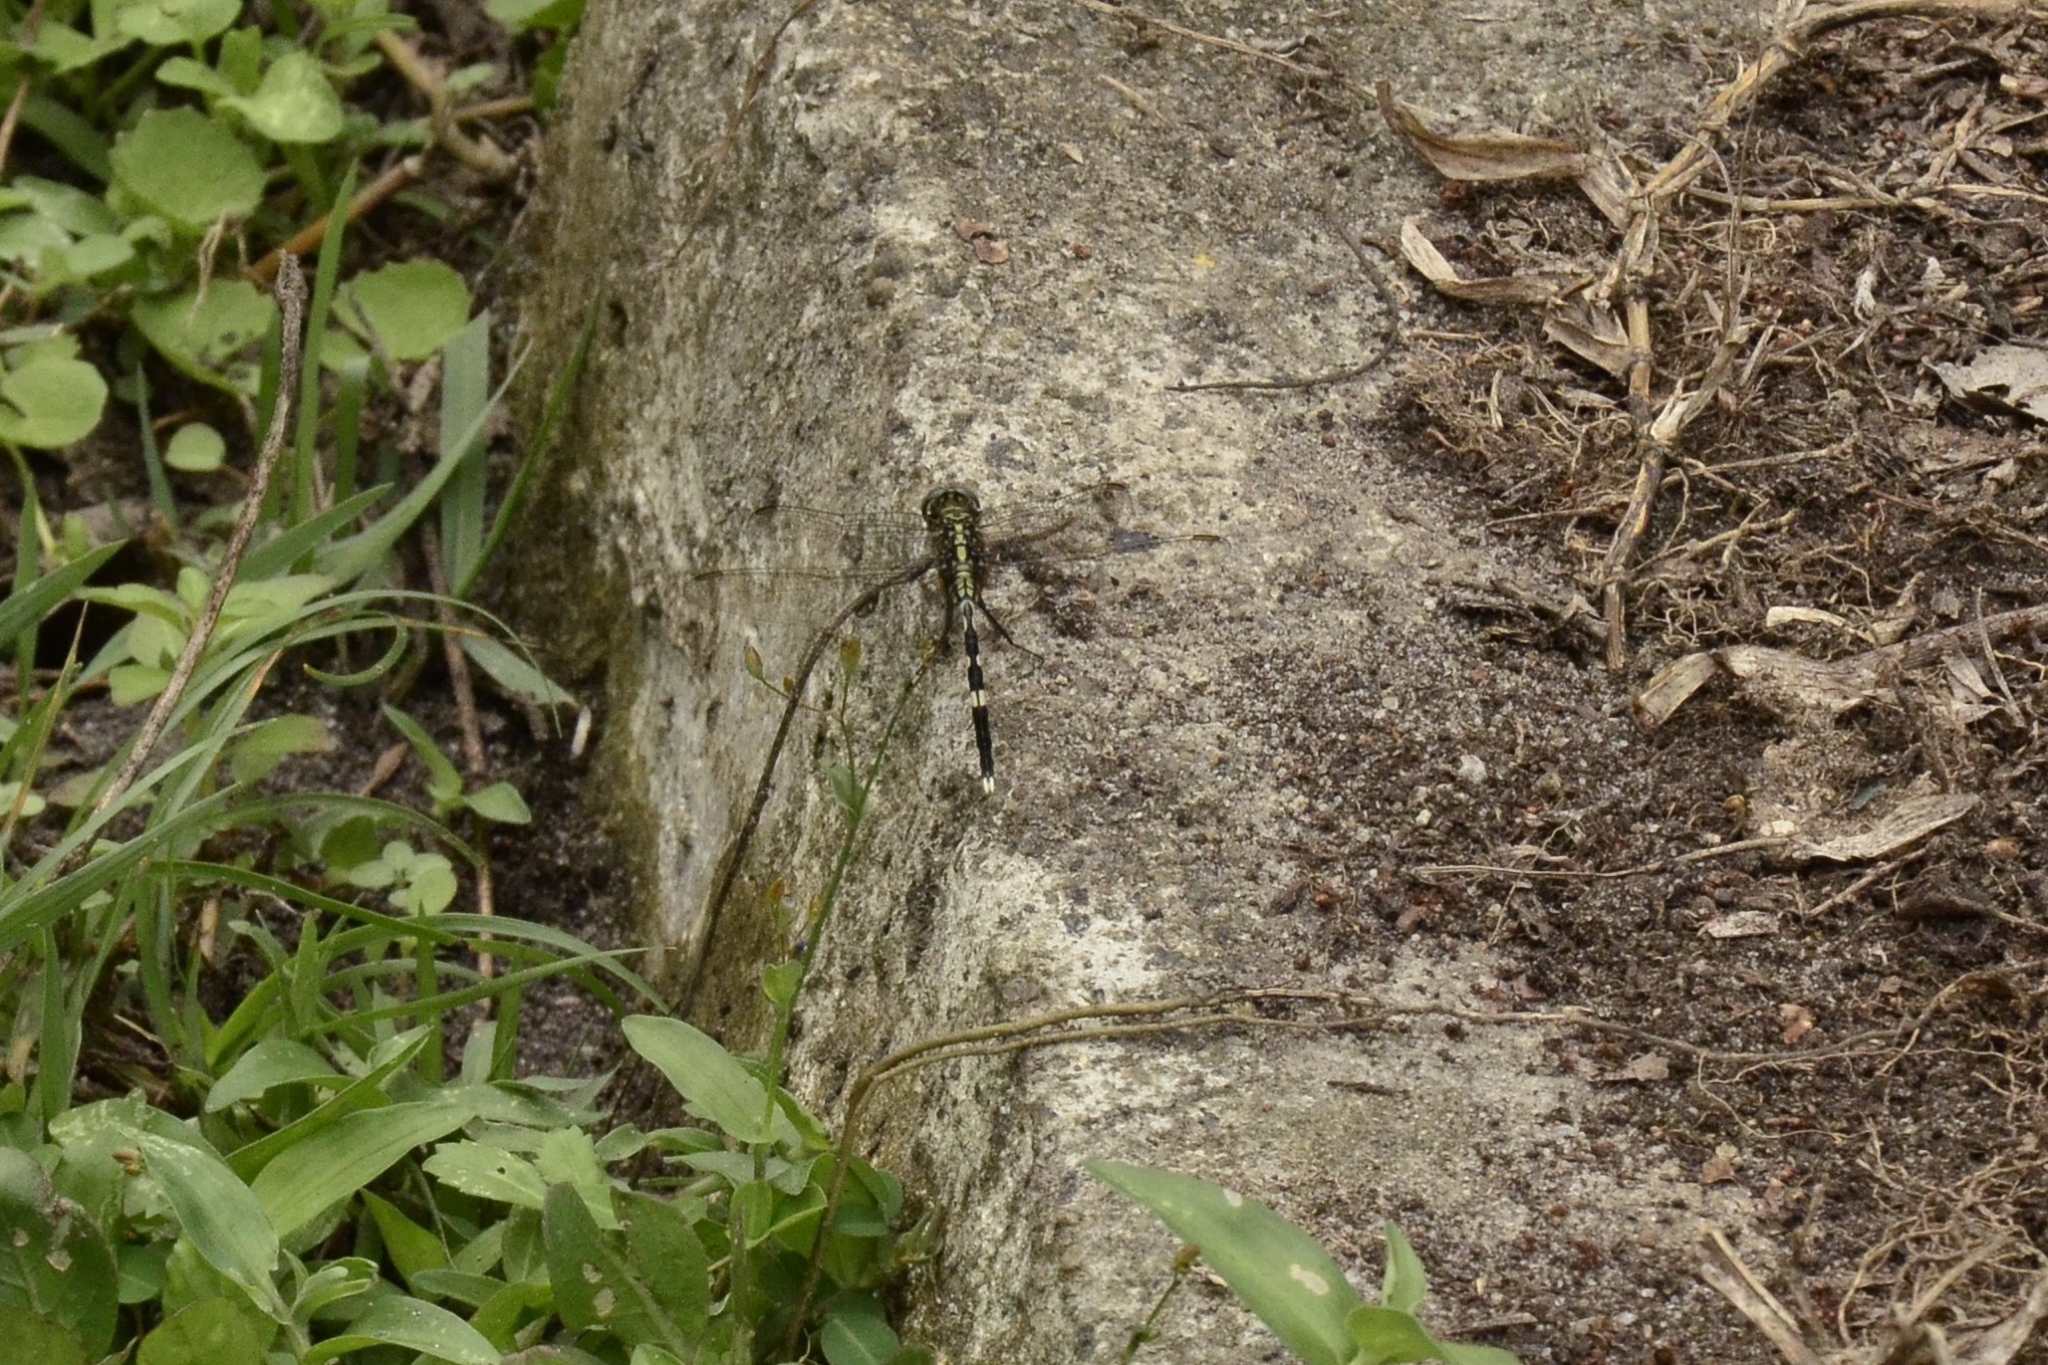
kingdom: Animalia
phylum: Arthropoda
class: Insecta
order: Odonata
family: Libellulidae
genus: Orthetrum
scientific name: Orthetrum sabina
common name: Slender skimmer
